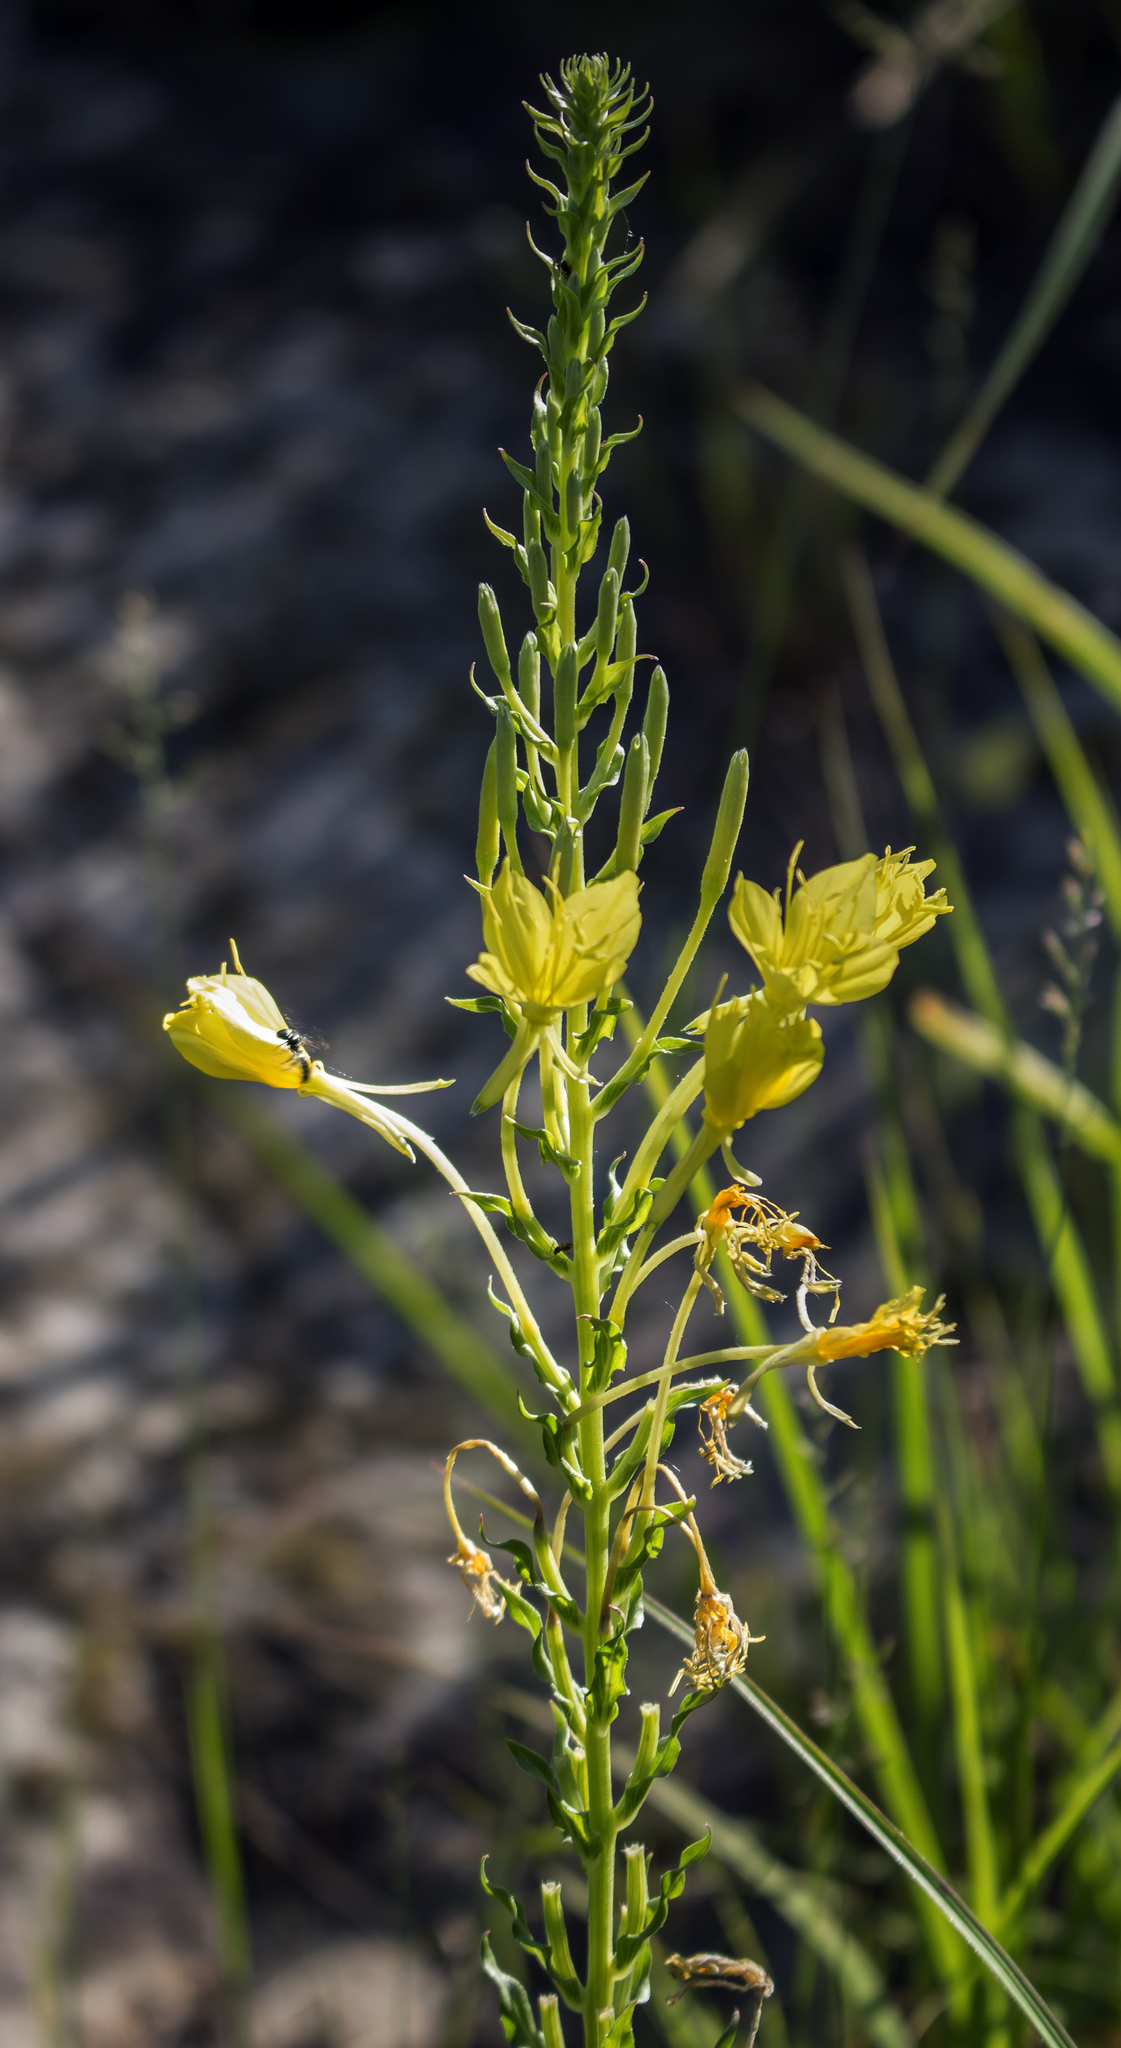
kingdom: Plantae
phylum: Tracheophyta
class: Magnoliopsida
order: Myrtales
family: Onagraceae
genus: Oenothera
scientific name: Oenothera clelandii
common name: Cleland's evening-primrose
